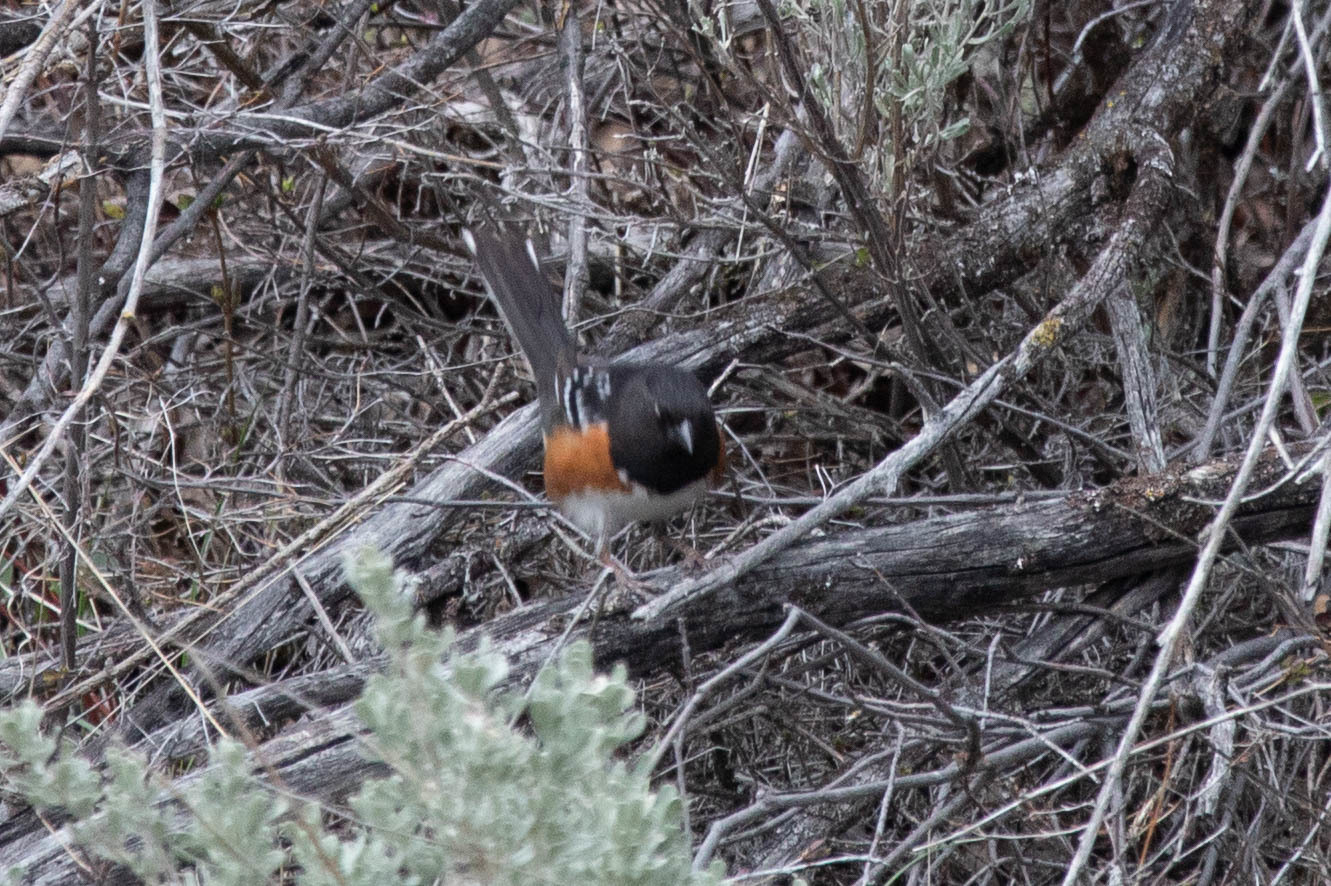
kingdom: Animalia
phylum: Chordata
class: Aves
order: Passeriformes
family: Passerellidae
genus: Pipilo
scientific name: Pipilo maculatus
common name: Spotted towhee
